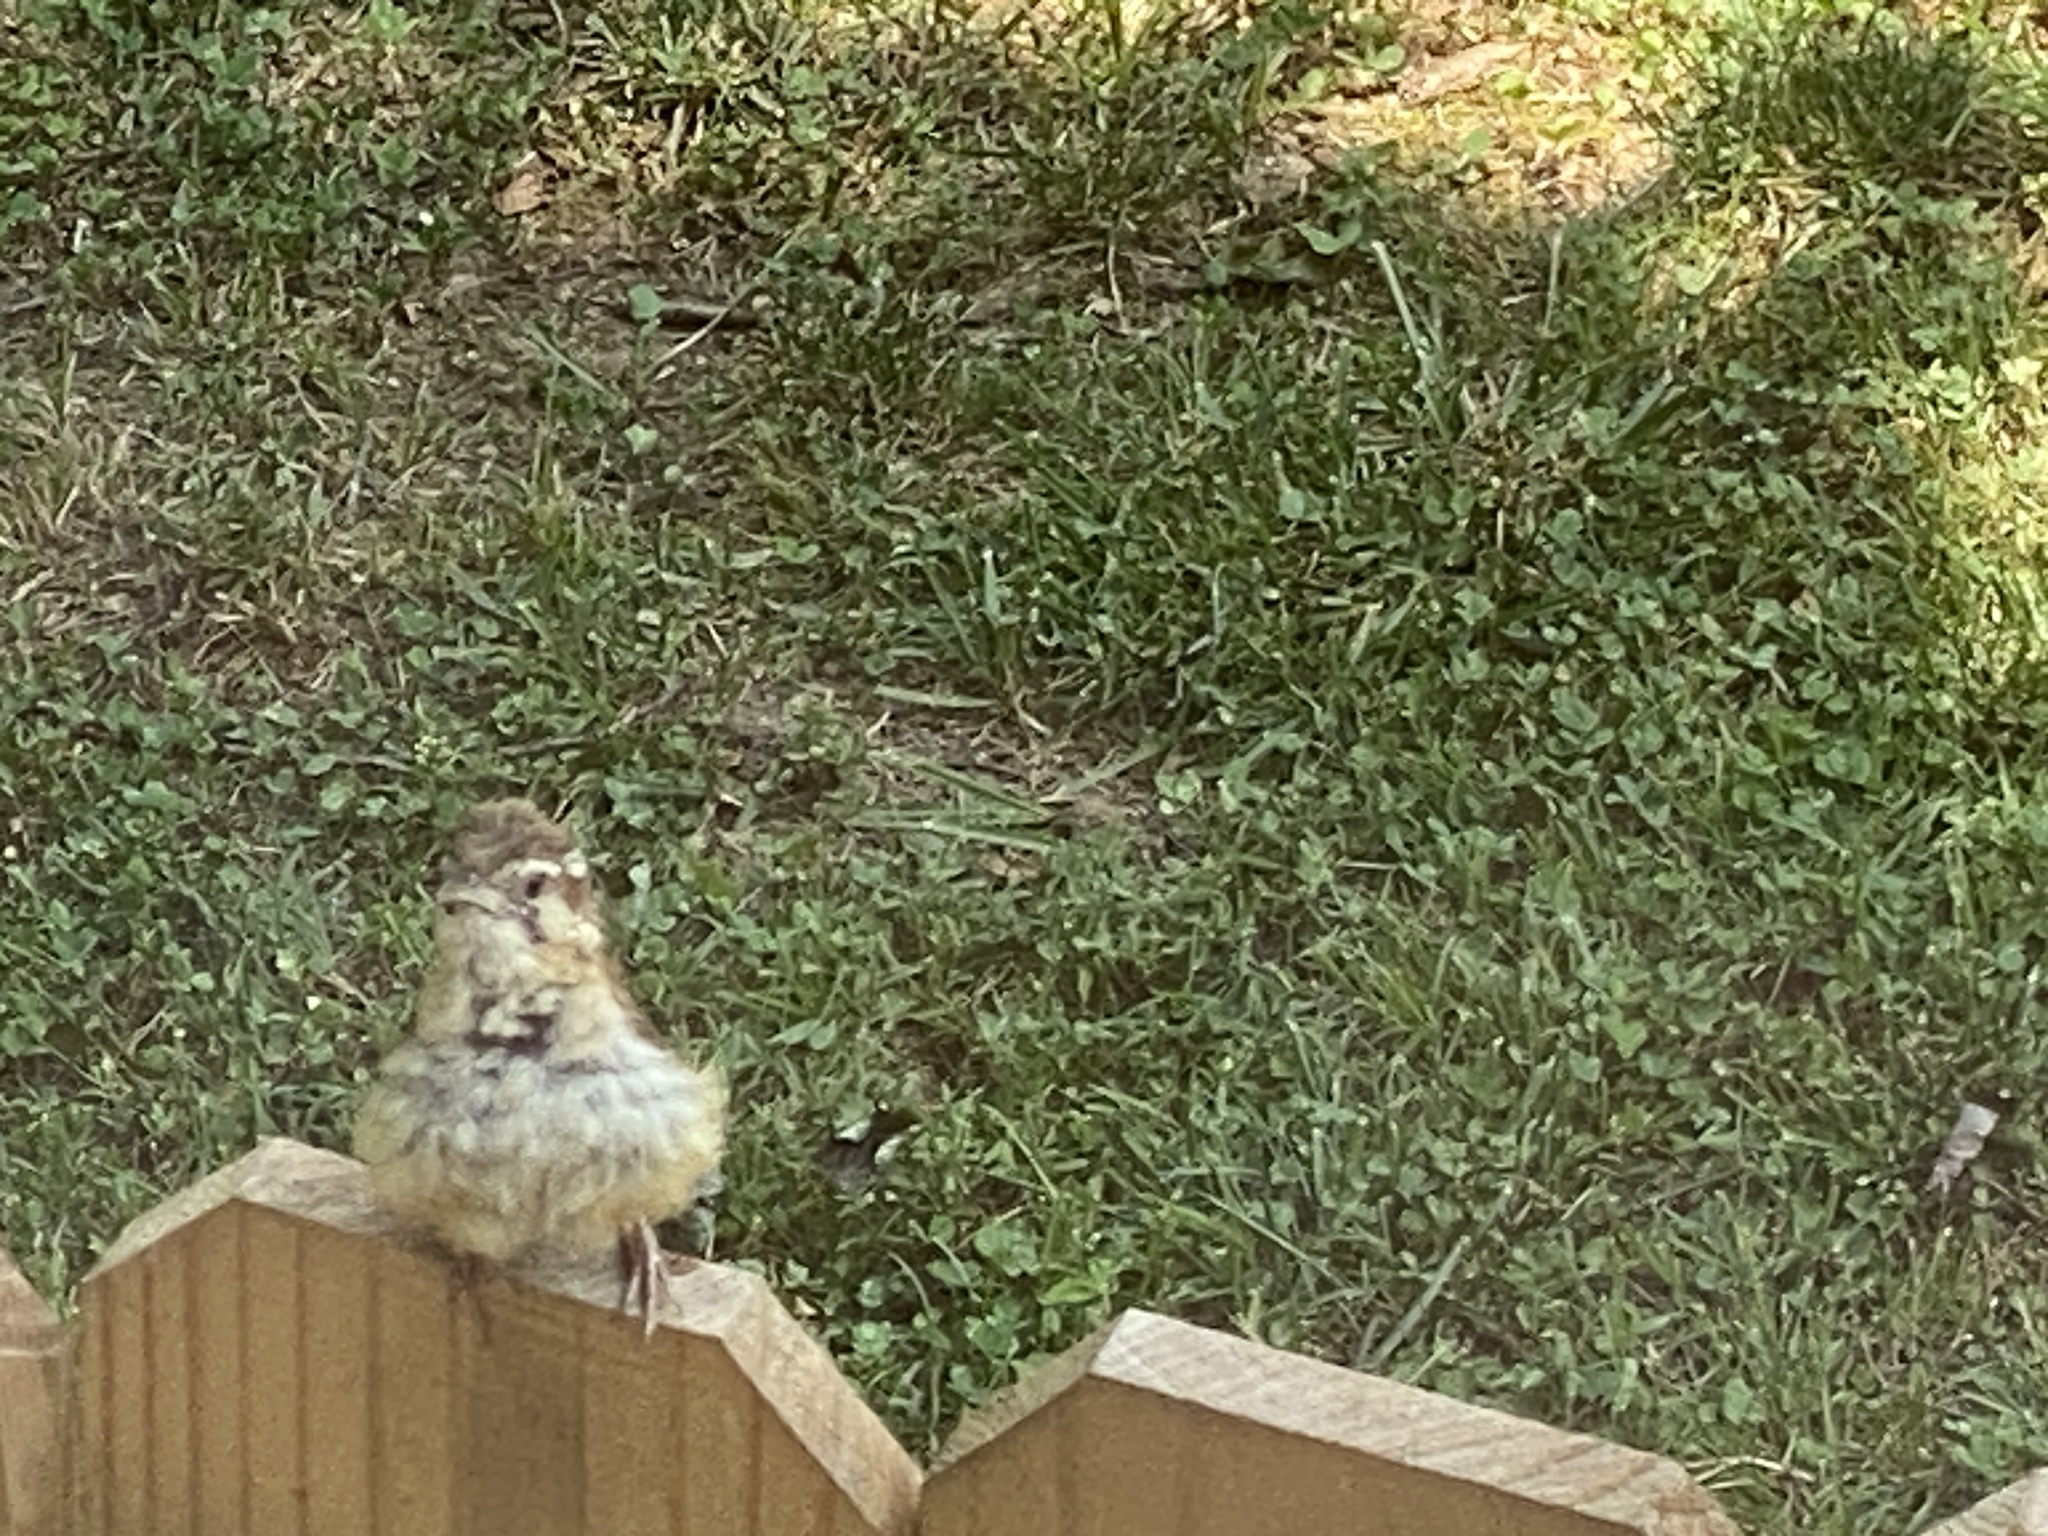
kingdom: Animalia
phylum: Chordata
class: Aves
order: Passeriformes
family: Troglodytidae
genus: Thryothorus
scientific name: Thryothorus ludovicianus
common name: Carolina wren
